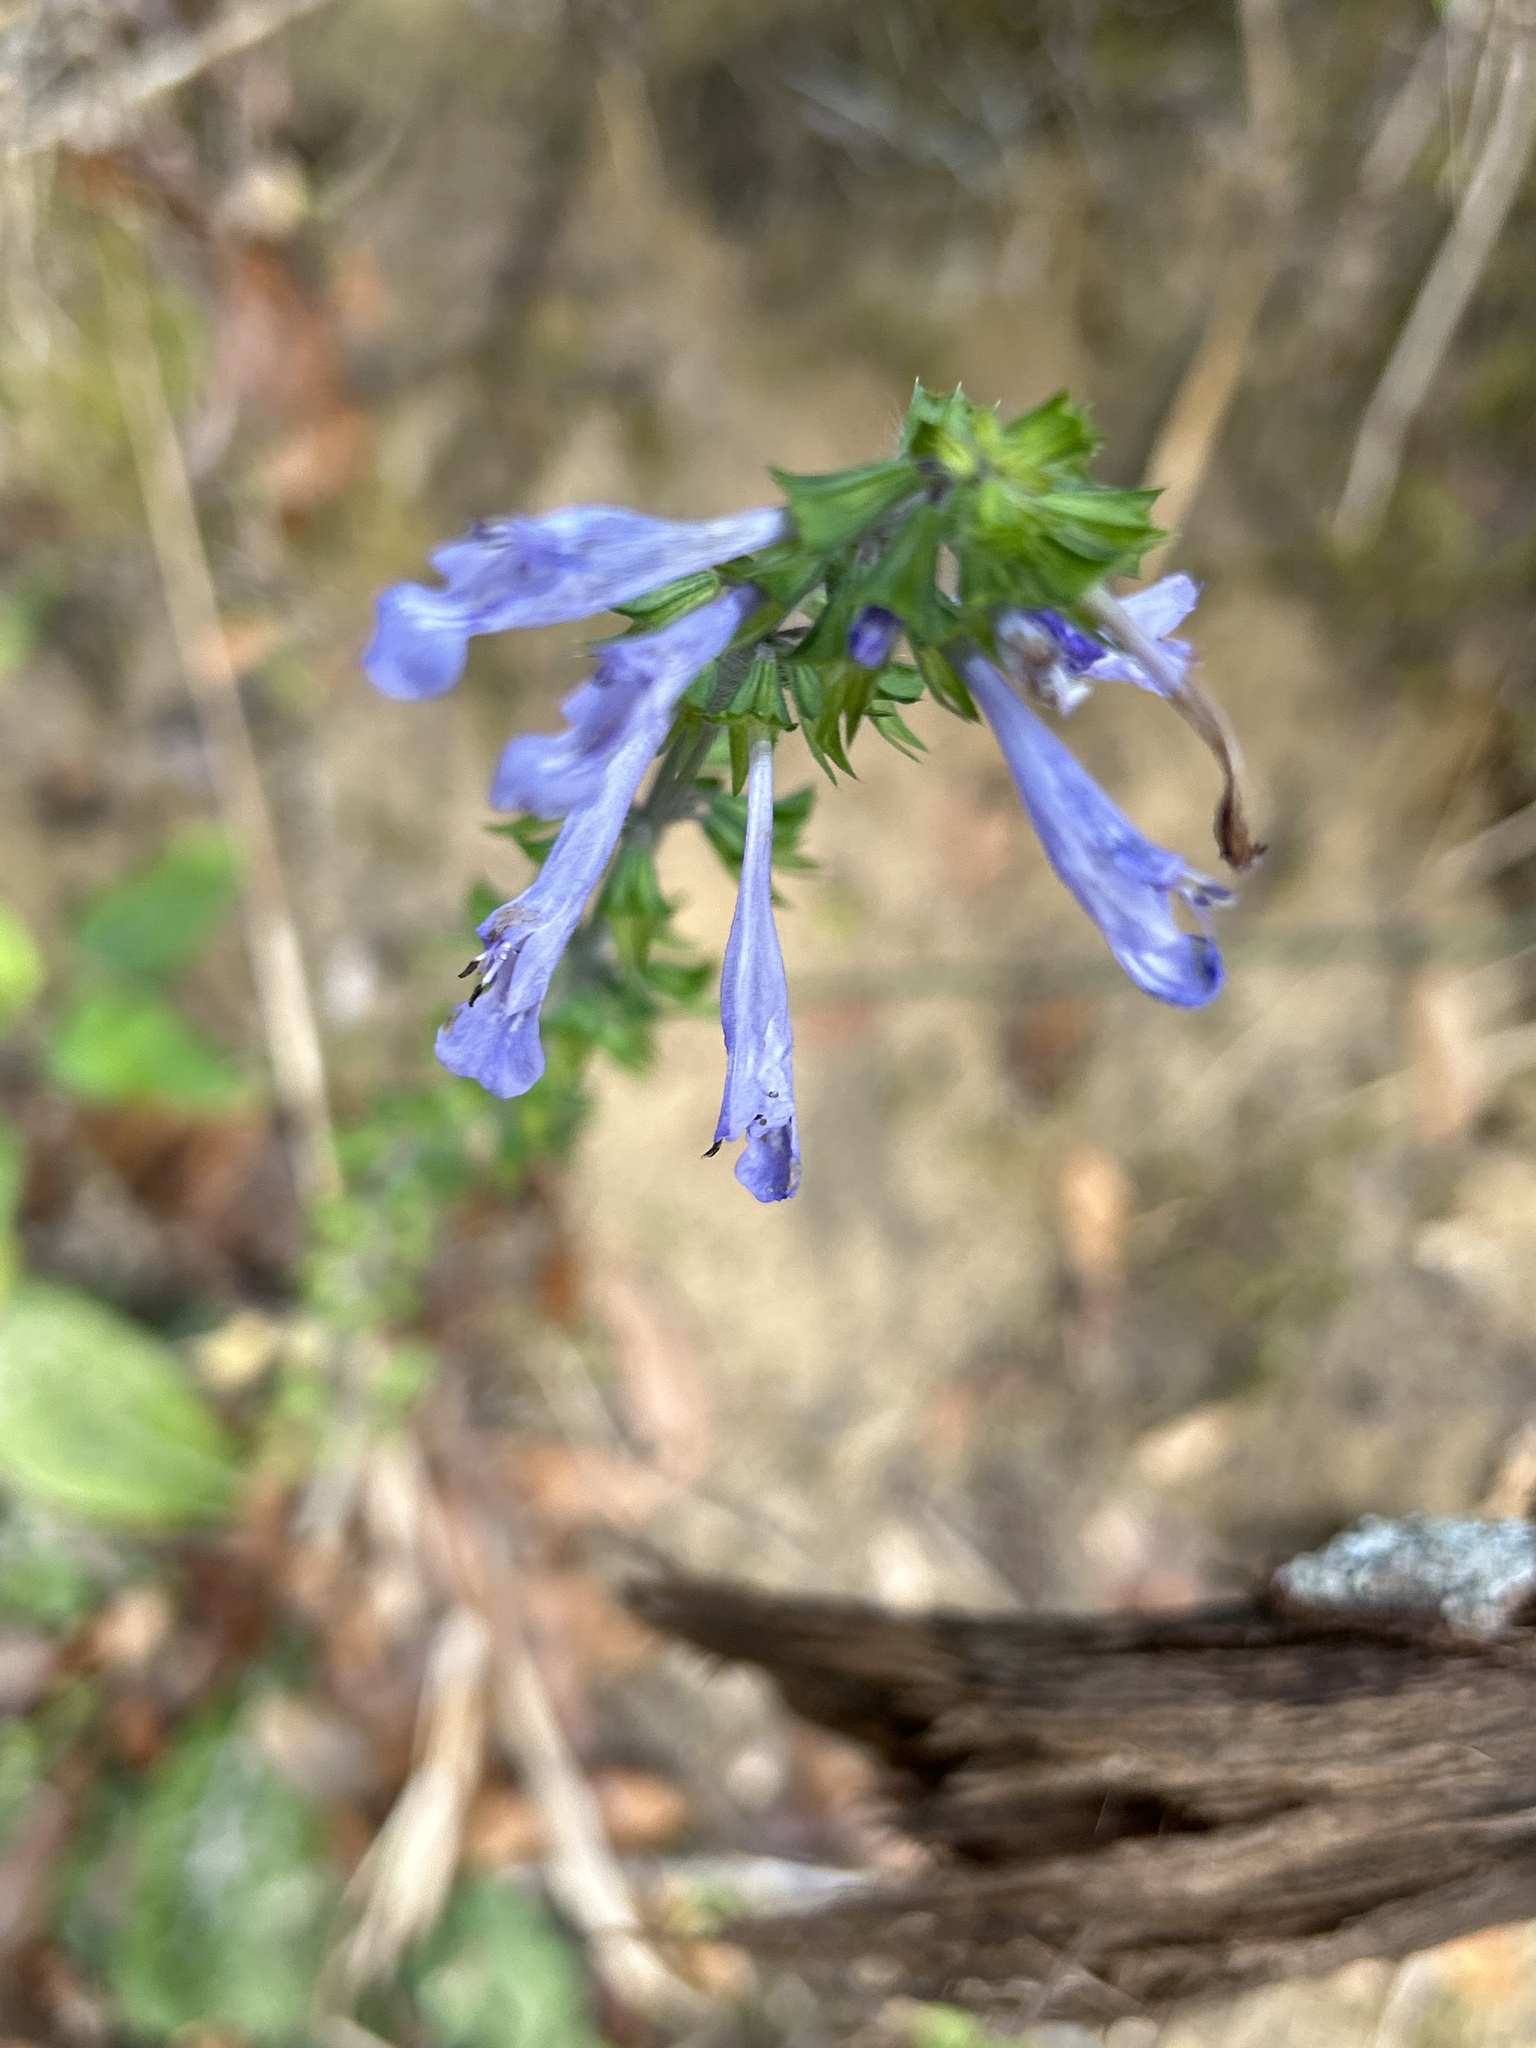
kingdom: Plantae
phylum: Tracheophyta
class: Magnoliopsida
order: Lamiales
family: Lamiaceae
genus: Salvia
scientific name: Salvia lyrata
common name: Cancerweed
